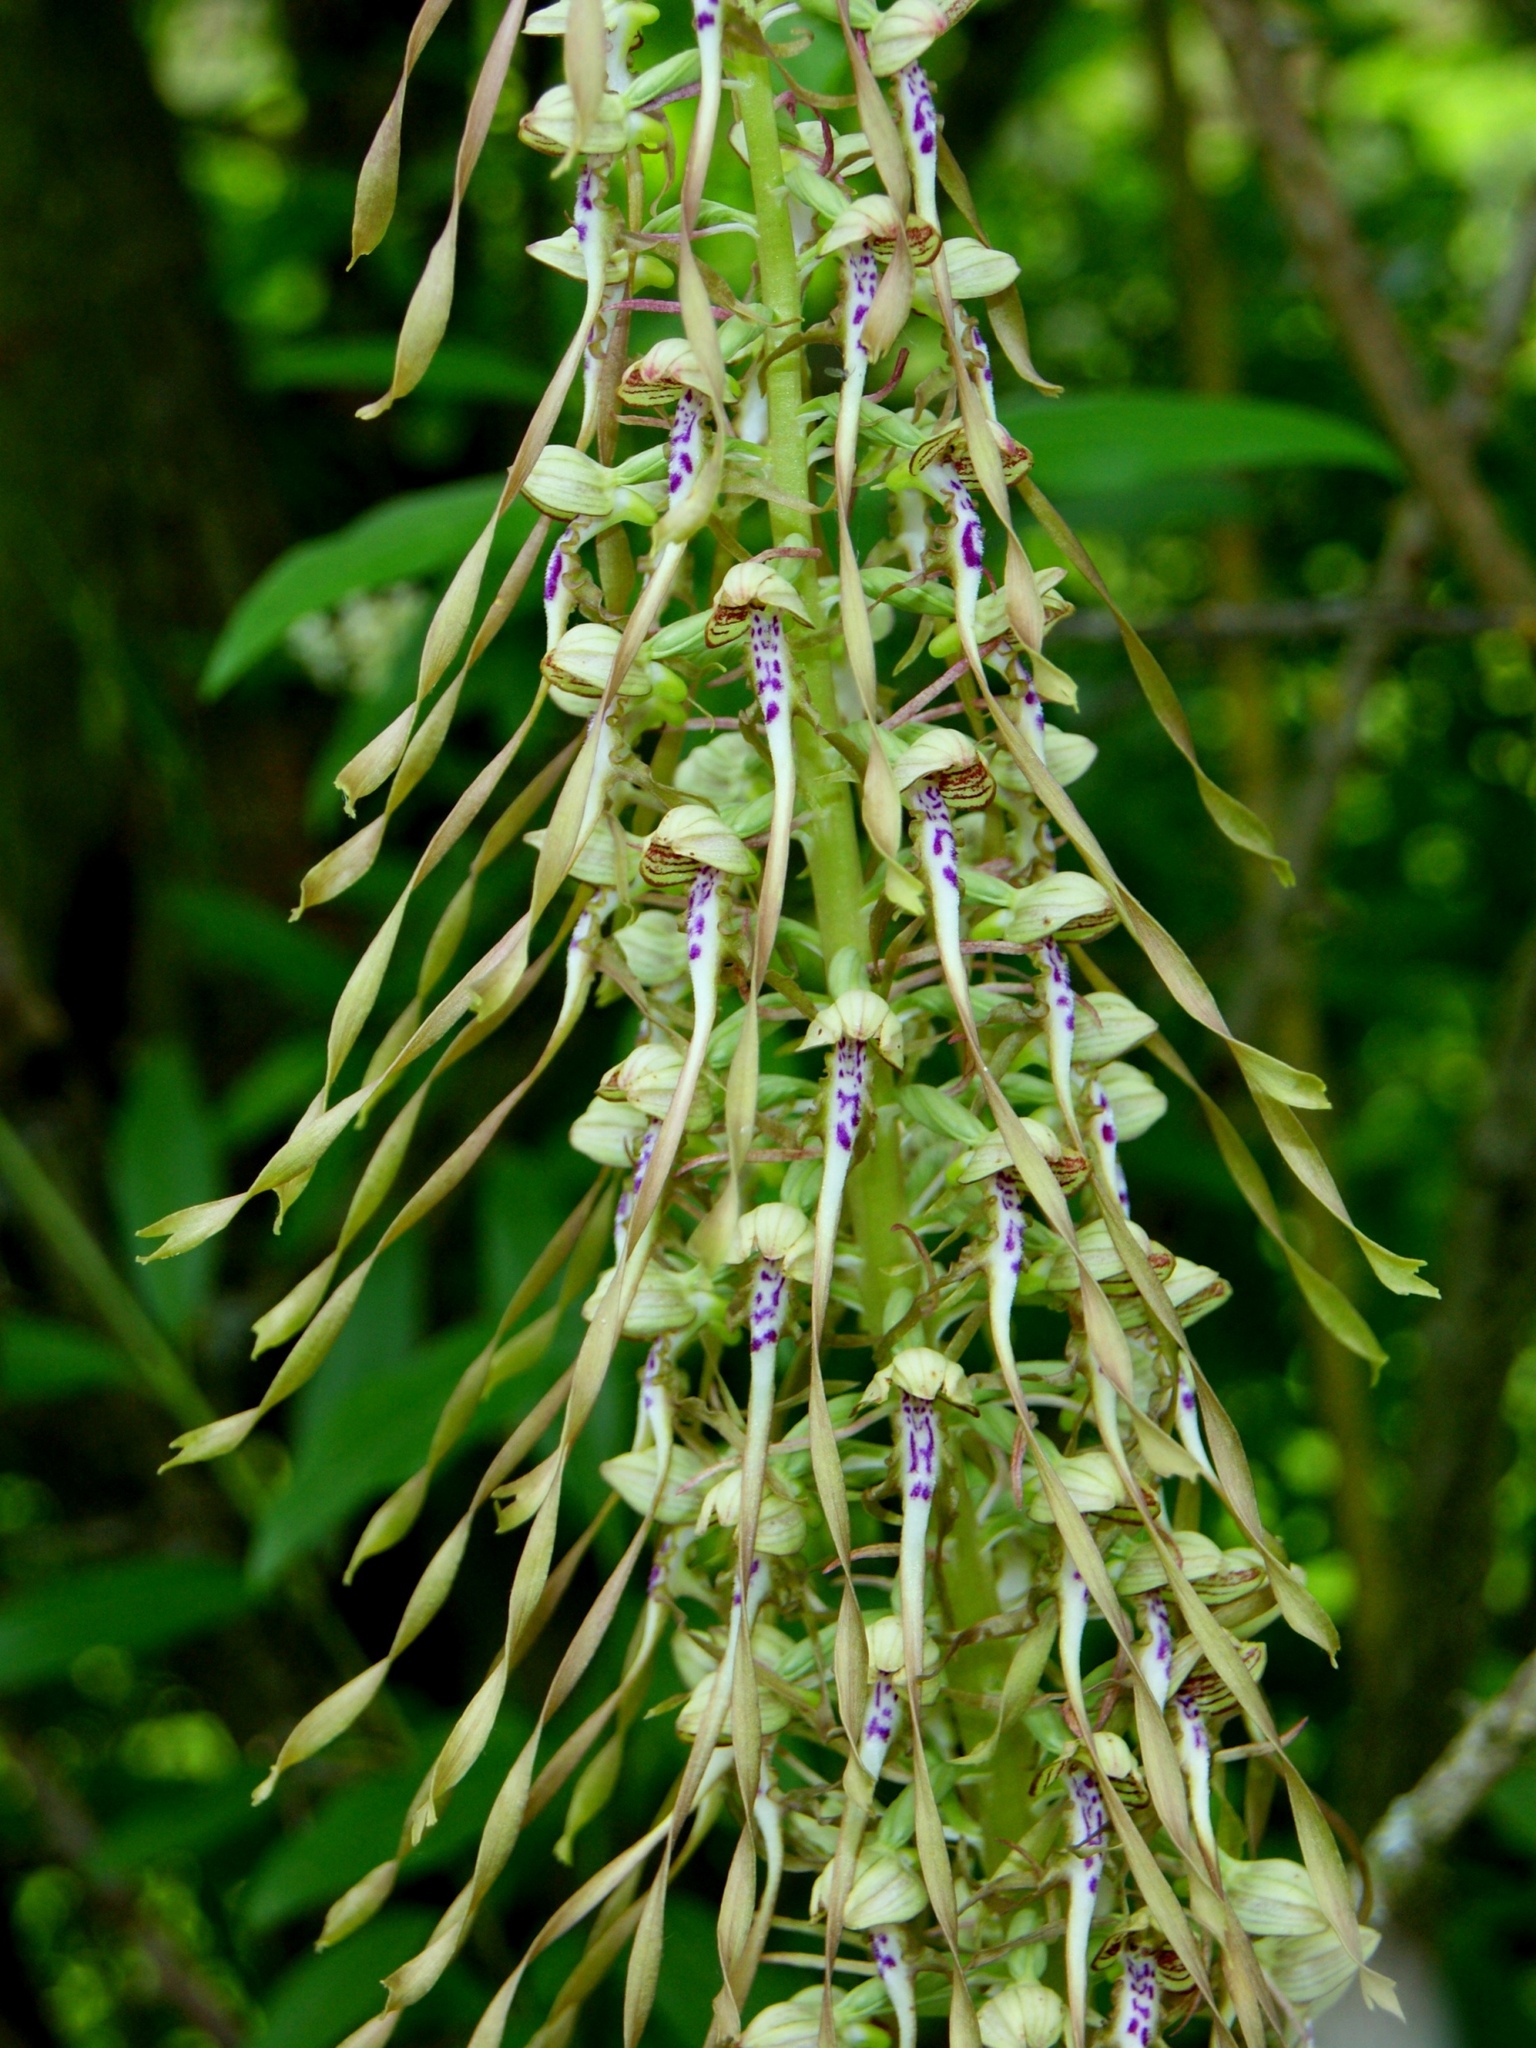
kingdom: Plantae
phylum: Tracheophyta
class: Liliopsida
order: Asparagales
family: Orchidaceae
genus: Himantoglossum
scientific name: Himantoglossum hircinum
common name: Lizard orchid
